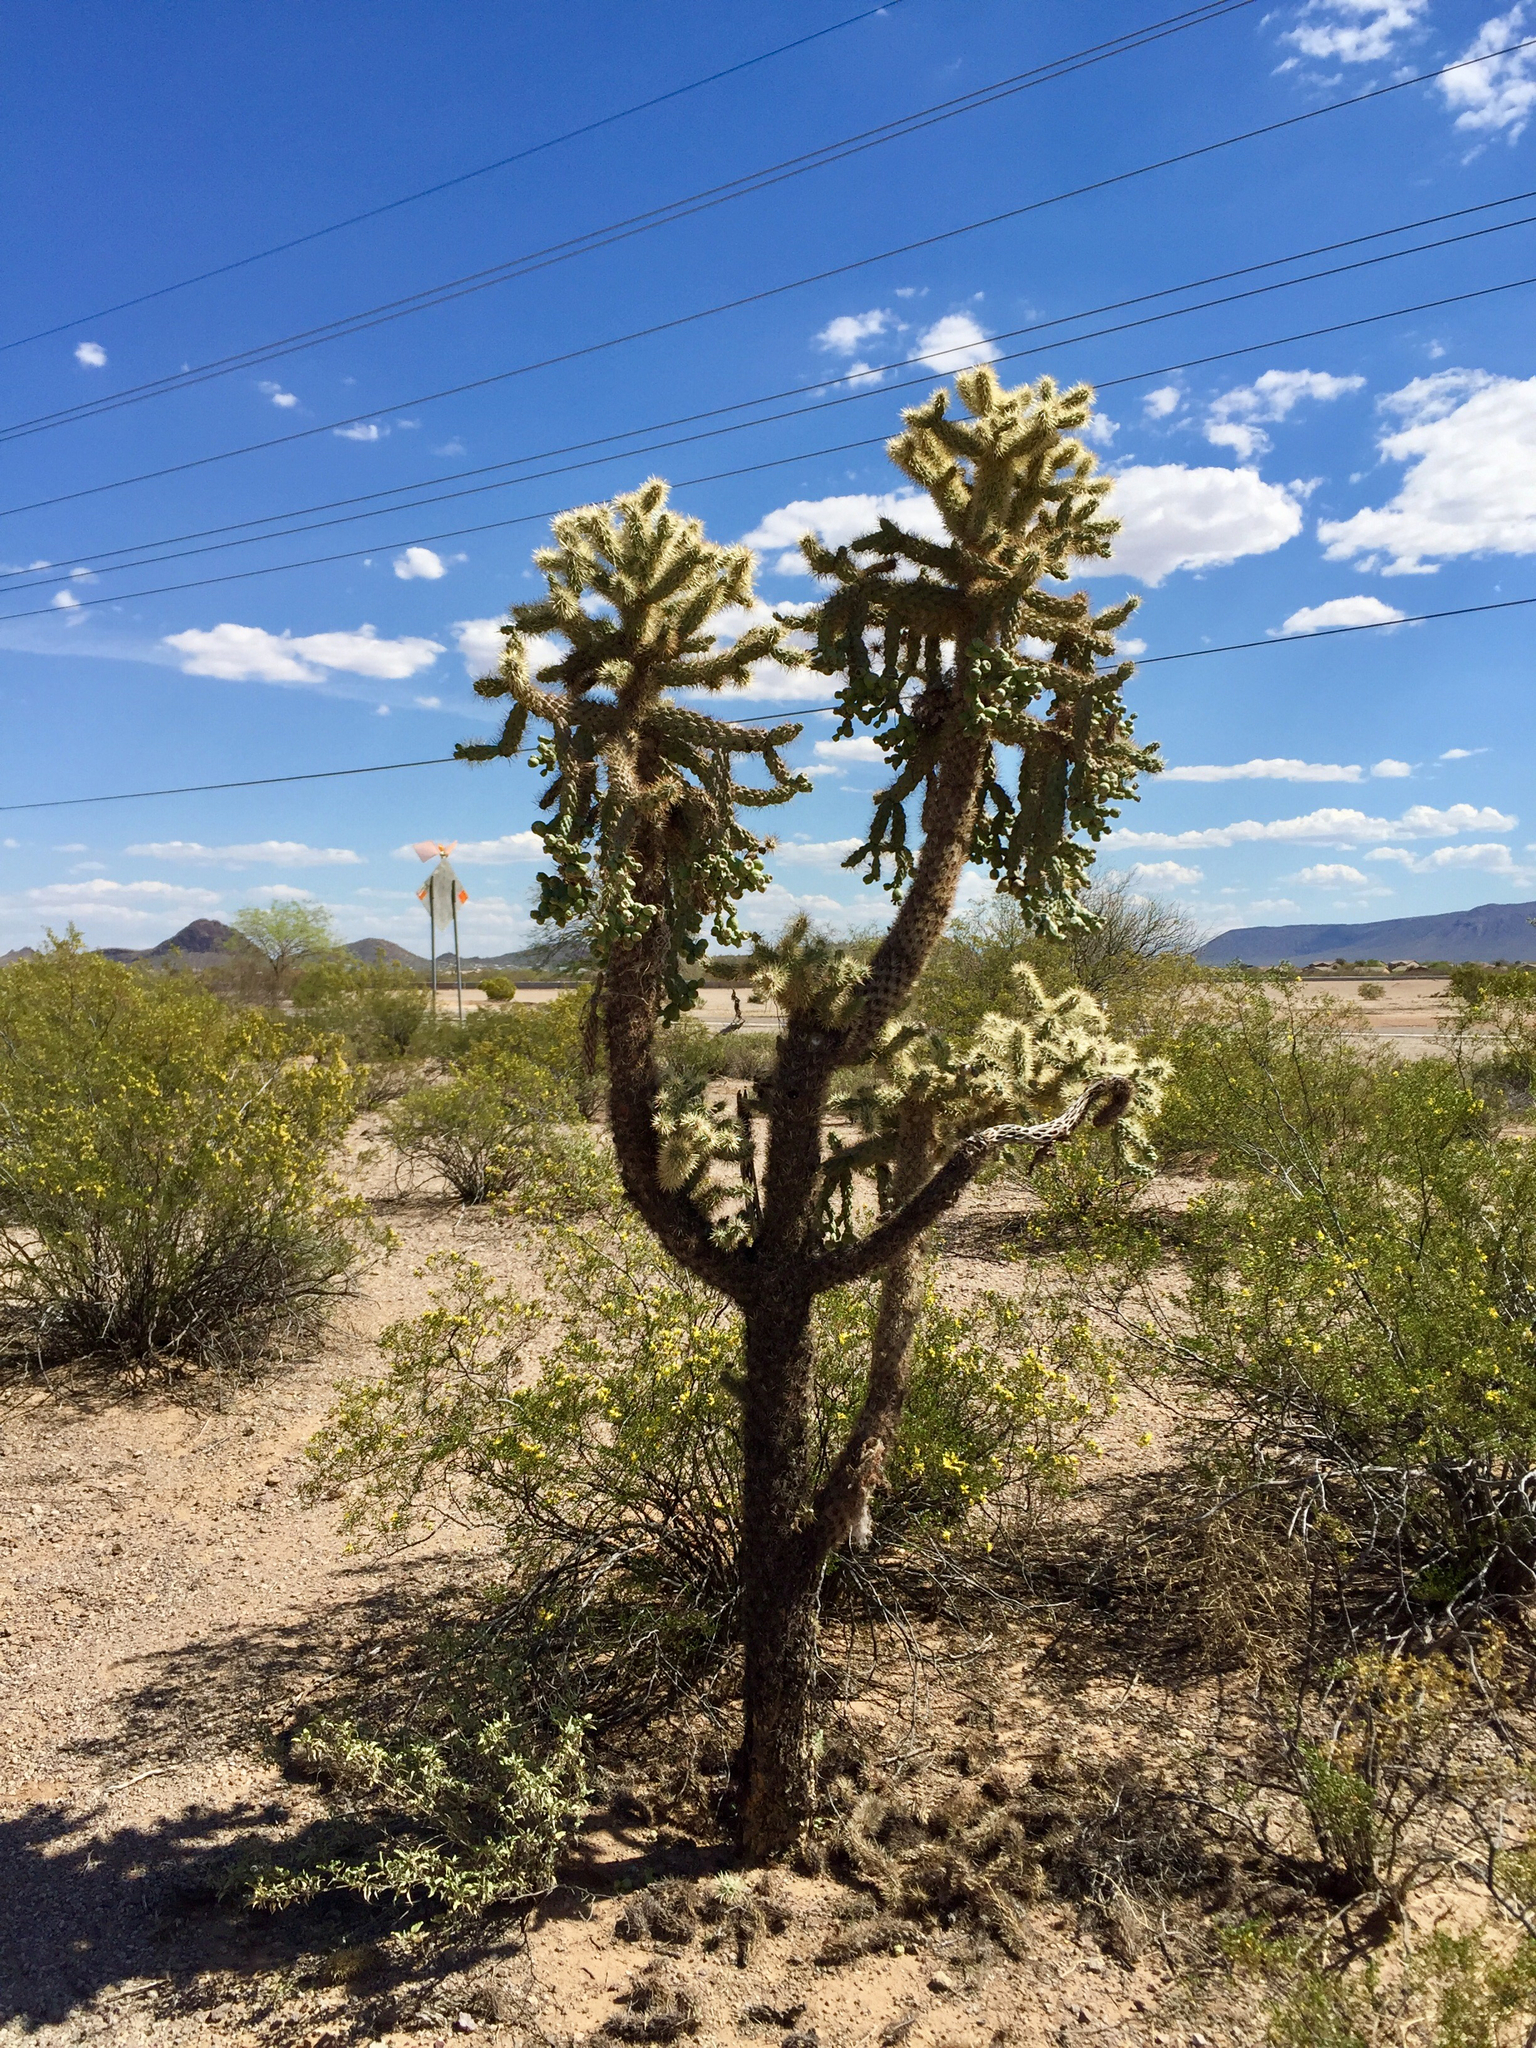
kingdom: Plantae
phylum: Tracheophyta
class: Magnoliopsida
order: Caryophyllales
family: Cactaceae
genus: Cylindropuntia
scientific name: Cylindropuntia fulgida
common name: Jumping cholla
